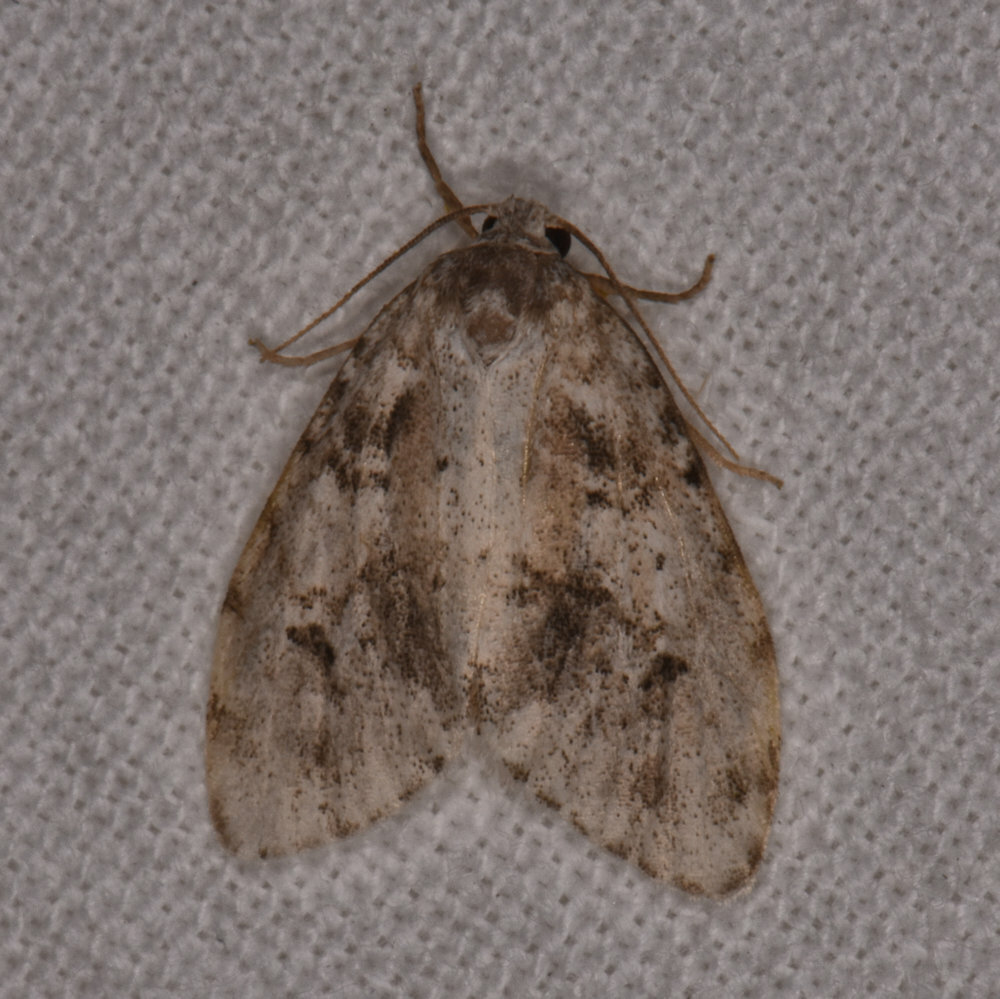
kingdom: Animalia
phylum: Arthropoda
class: Insecta
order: Lepidoptera
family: Erebidae
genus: Clemensia
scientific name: Clemensia albata
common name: Little white lichen moth
